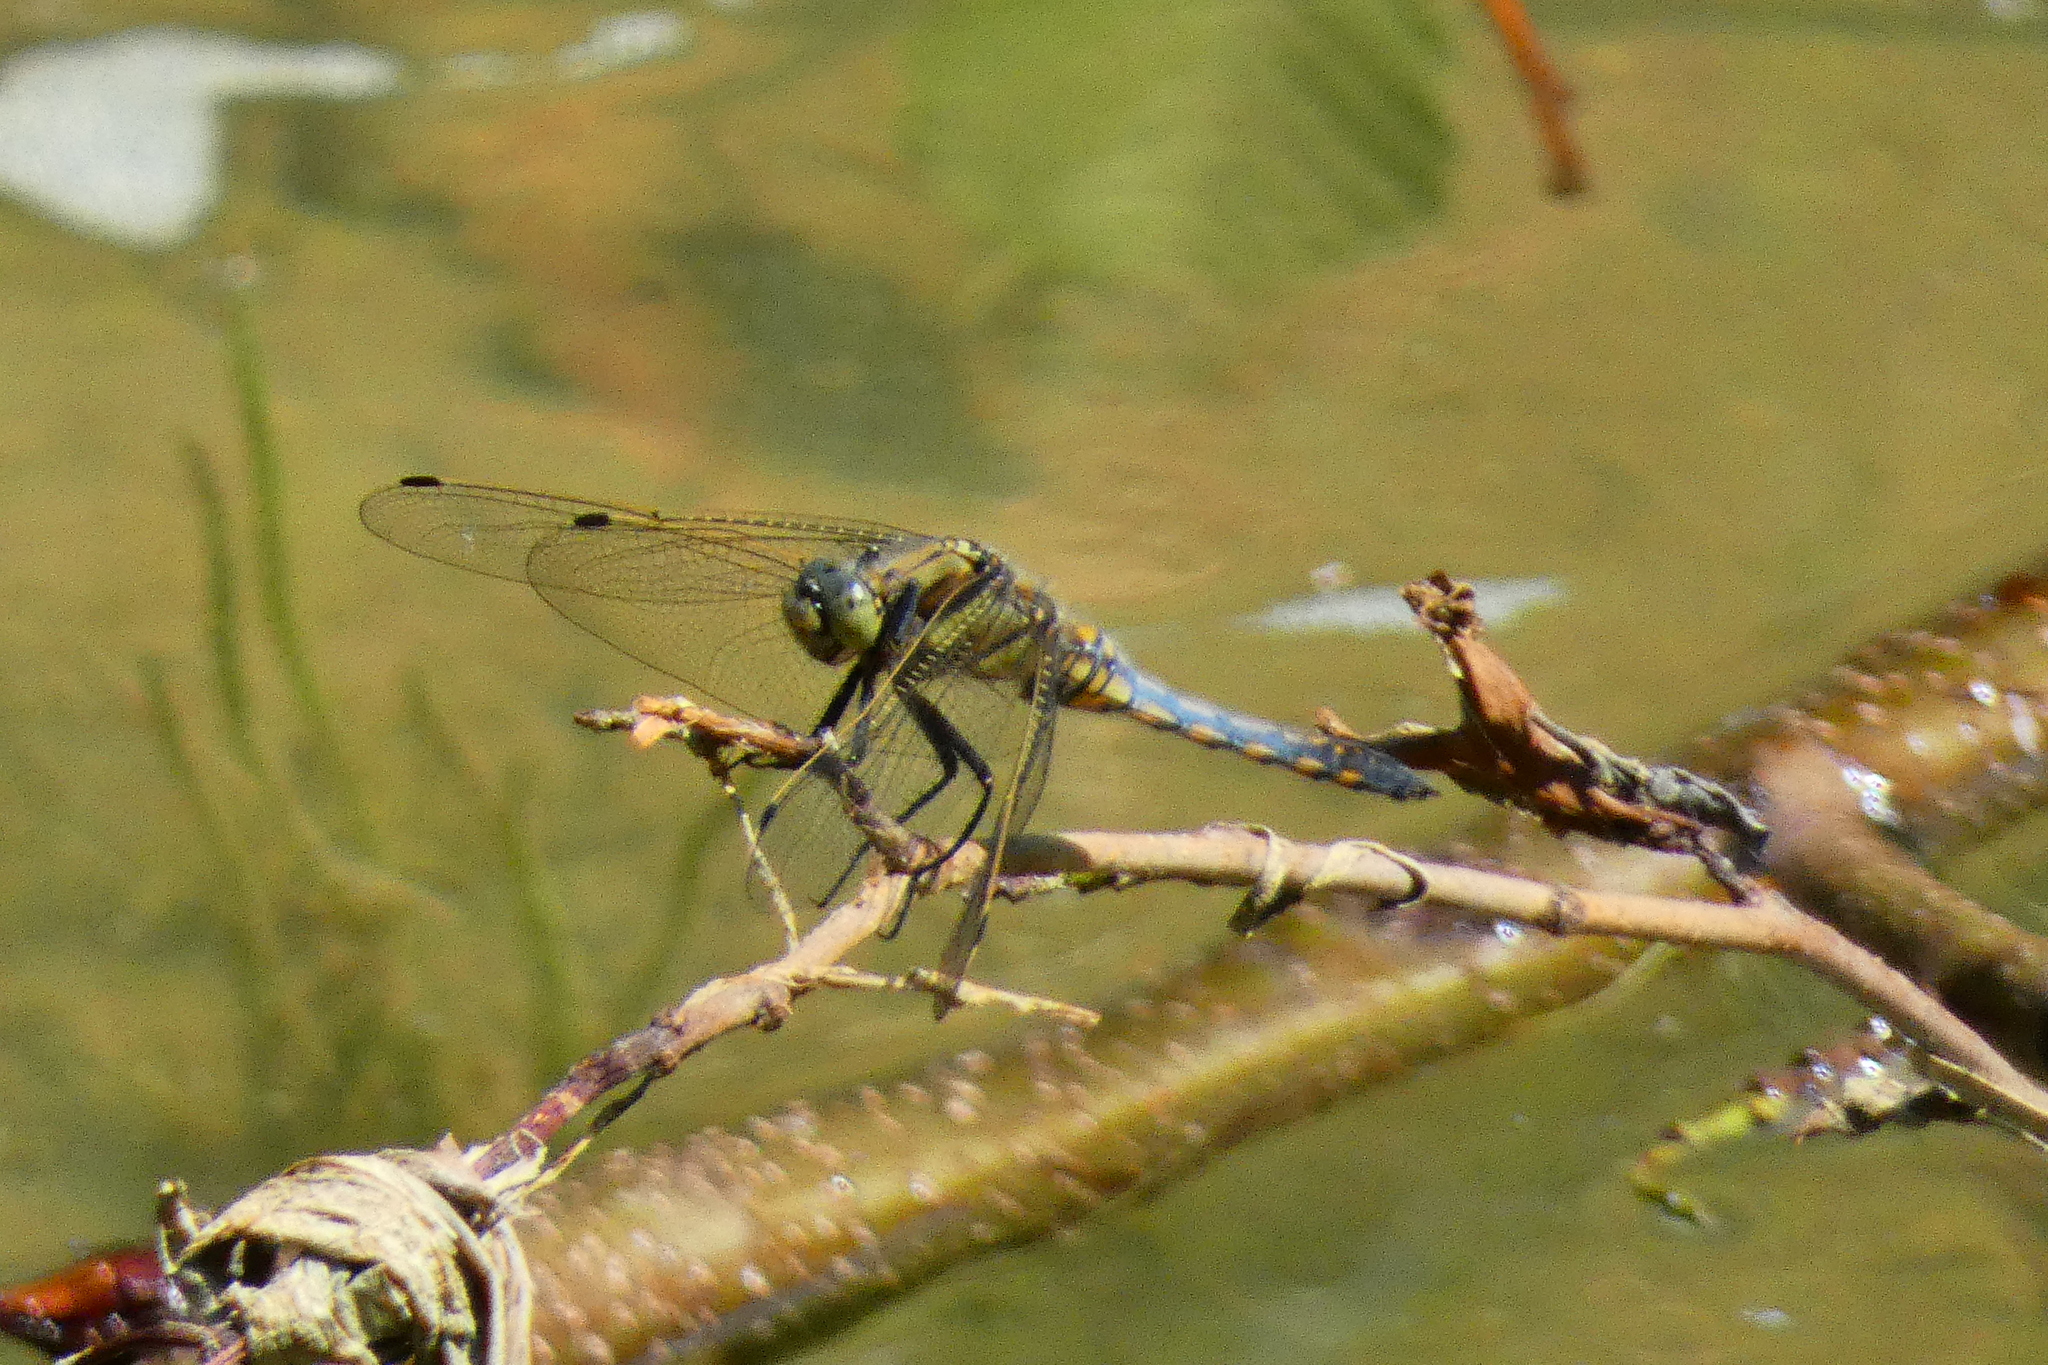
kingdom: Animalia
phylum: Arthropoda
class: Insecta
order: Odonata
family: Libellulidae
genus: Orthetrum
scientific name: Orthetrum cancellatum
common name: Black-tailed skimmer
